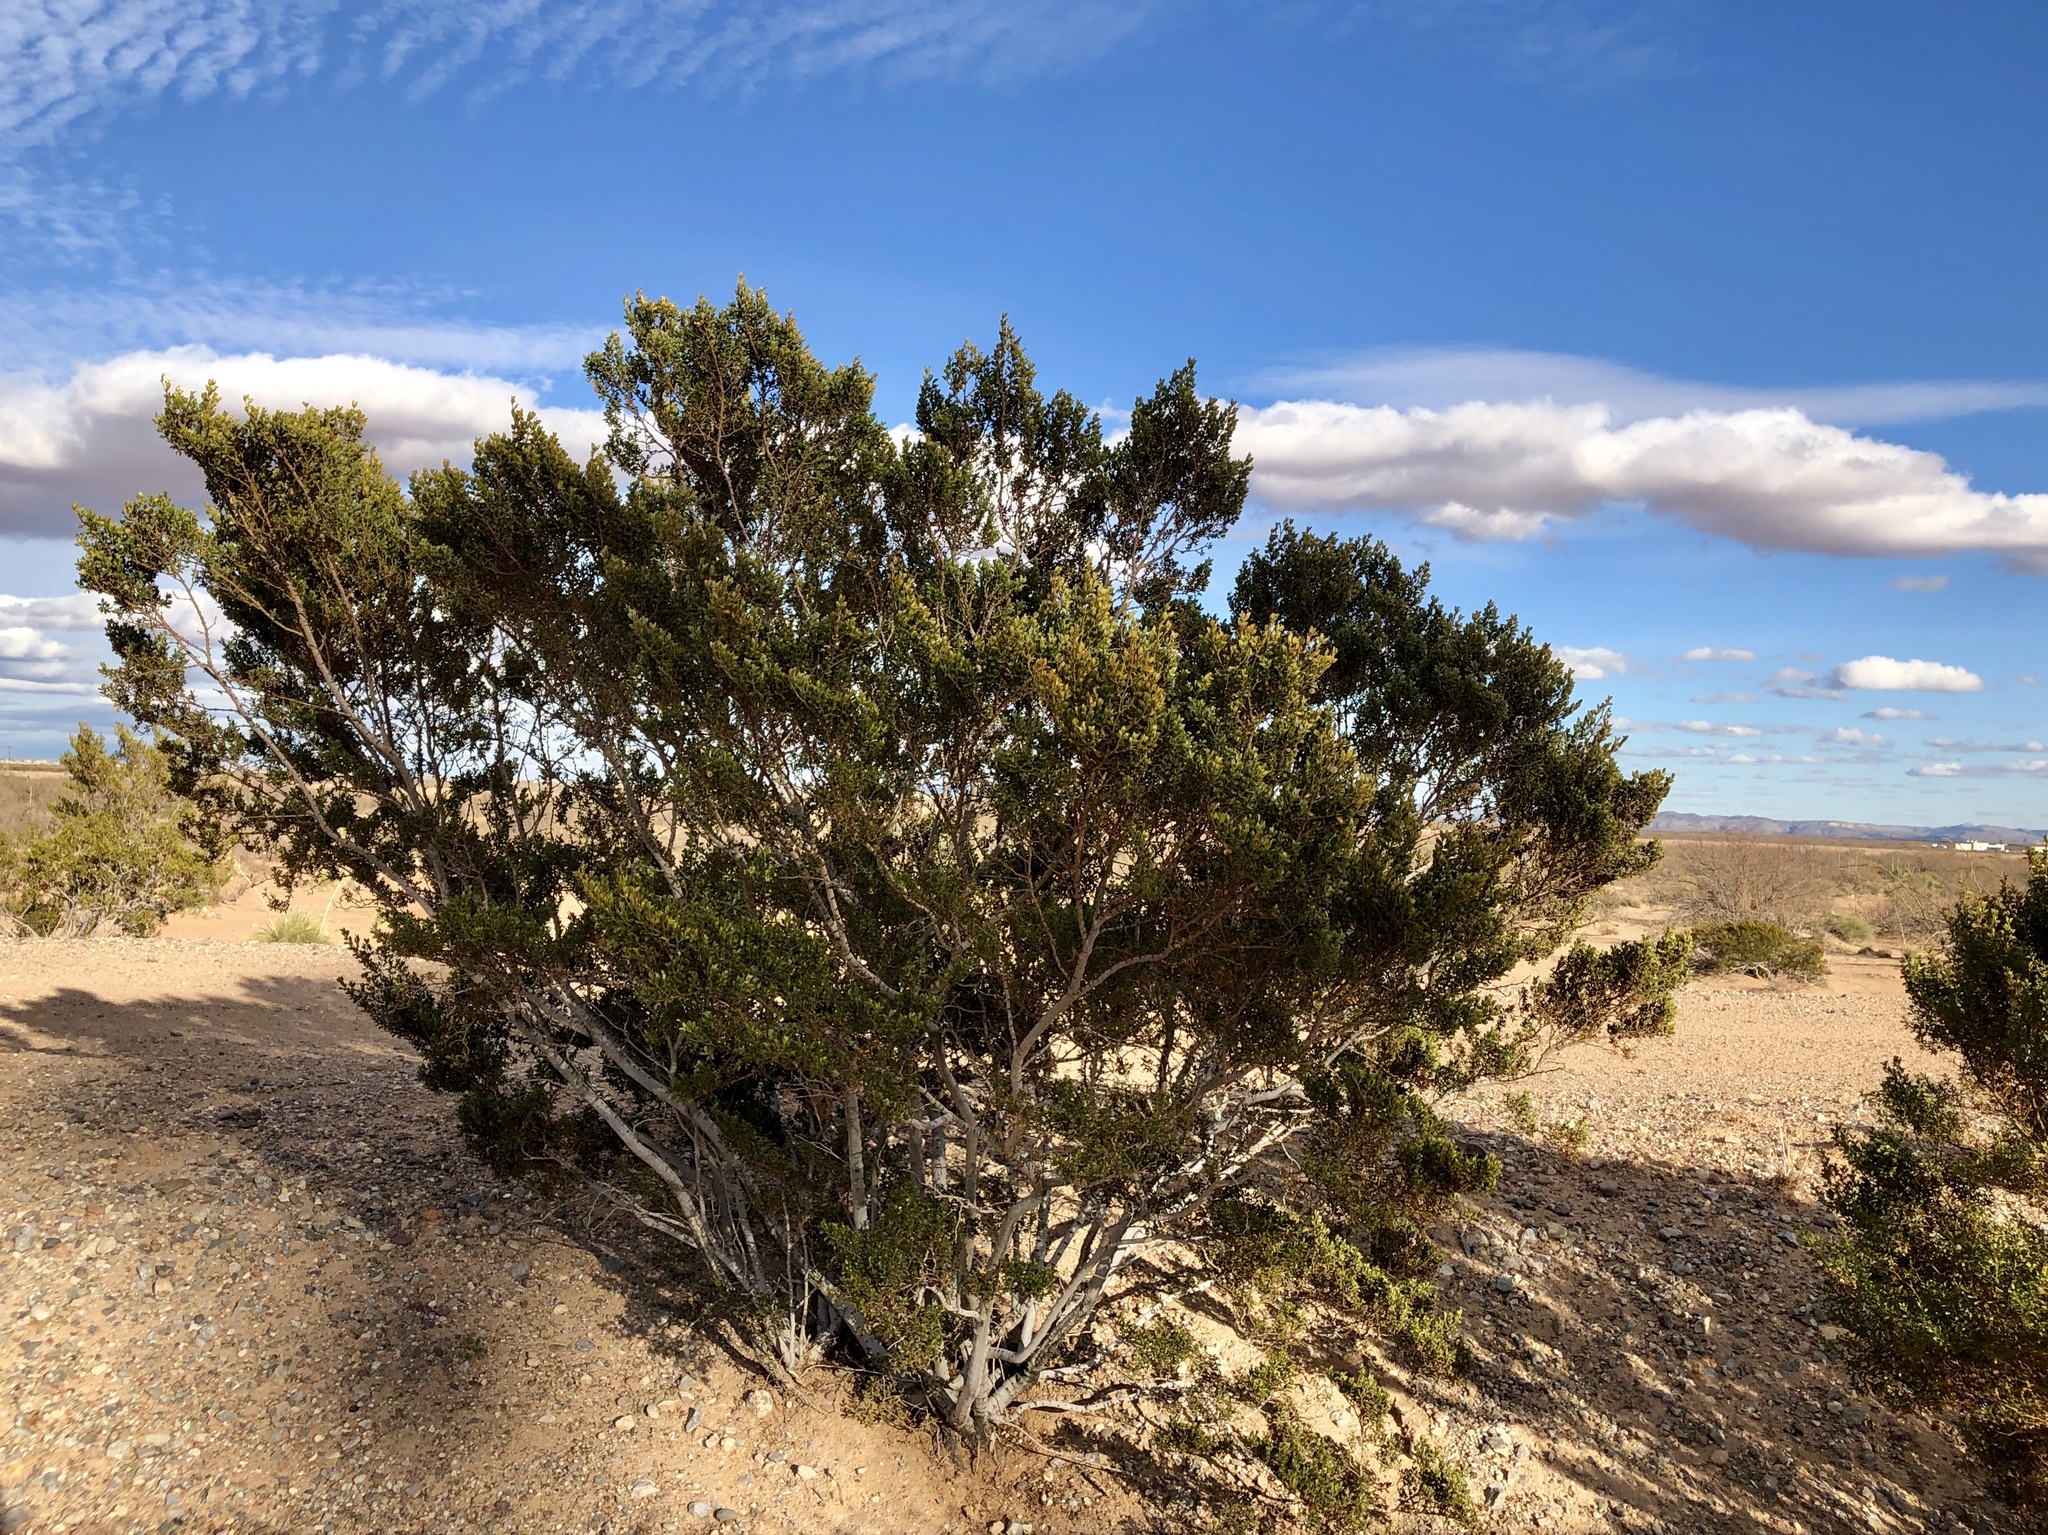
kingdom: Plantae
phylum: Tracheophyta
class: Magnoliopsida
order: Zygophyllales
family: Zygophyllaceae
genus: Larrea
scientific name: Larrea tridentata
